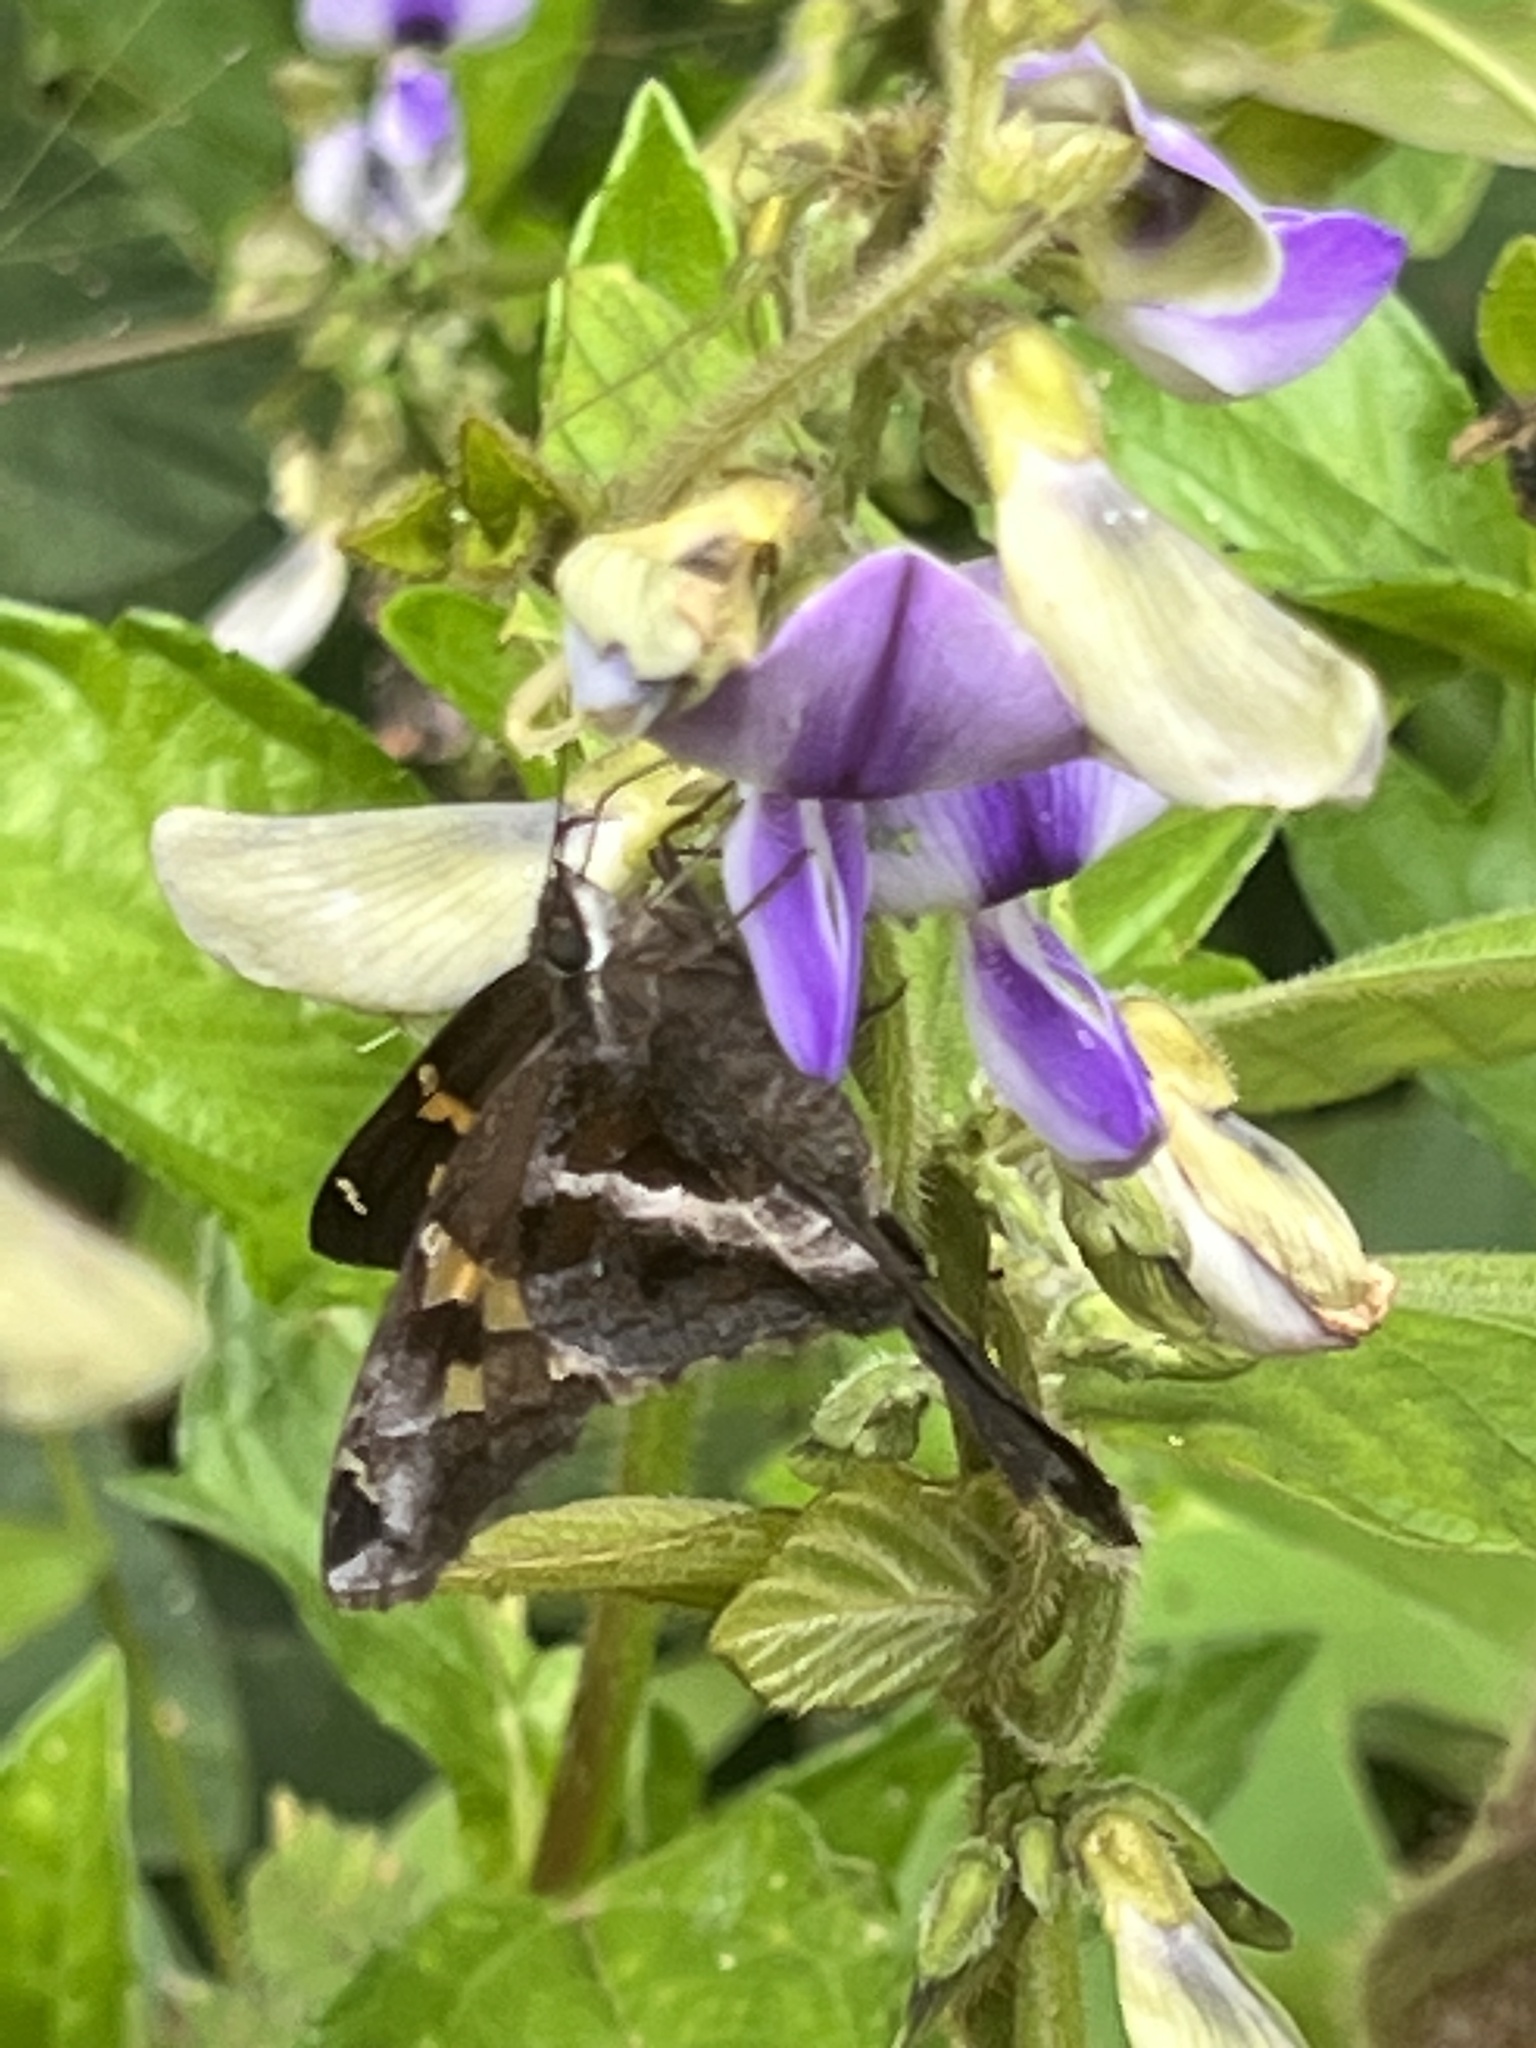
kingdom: Animalia
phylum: Arthropoda
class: Insecta
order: Lepidoptera
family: Hesperiidae
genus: Chioides
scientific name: Chioides catillus
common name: Silverbanded skipper
